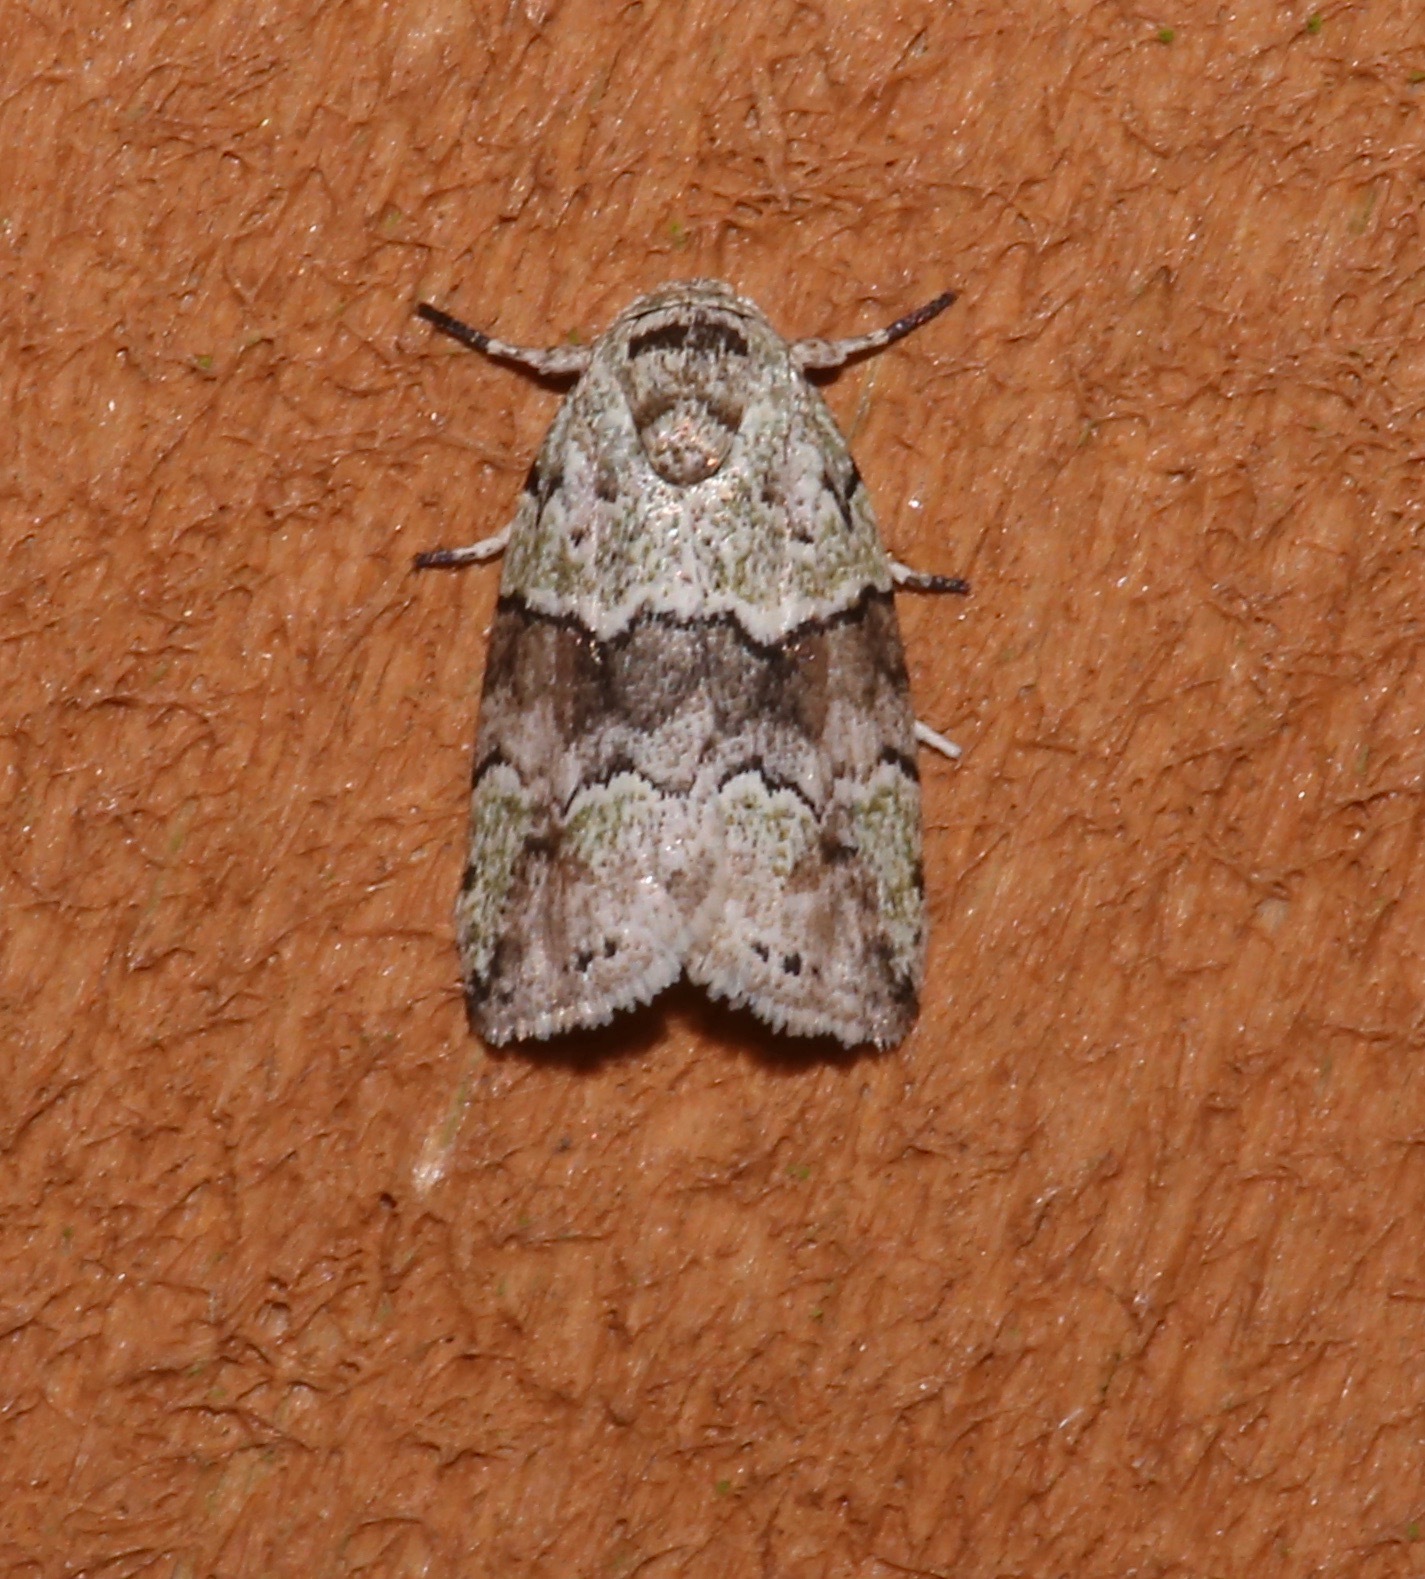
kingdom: Animalia
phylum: Arthropoda
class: Insecta
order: Lepidoptera
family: Nolidae
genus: Afrida
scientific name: Afrida ydatodes
